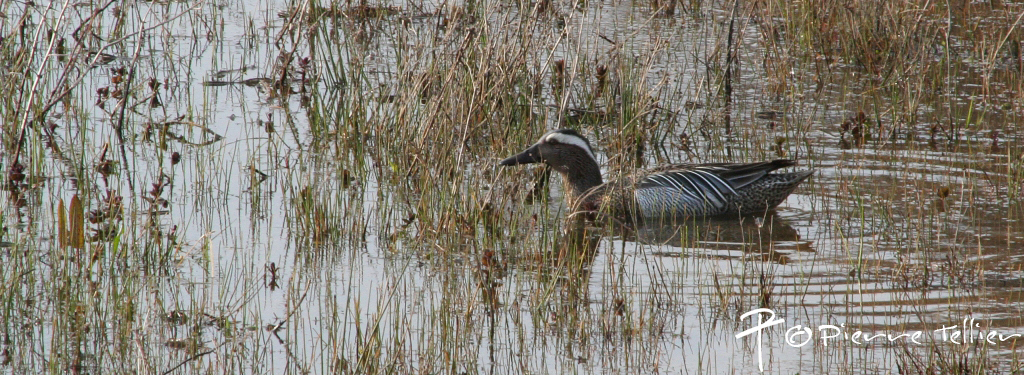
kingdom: Animalia
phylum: Chordata
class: Aves
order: Anseriformes
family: Anatidae
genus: Spatula
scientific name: Spatula querquedula
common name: Garganey
